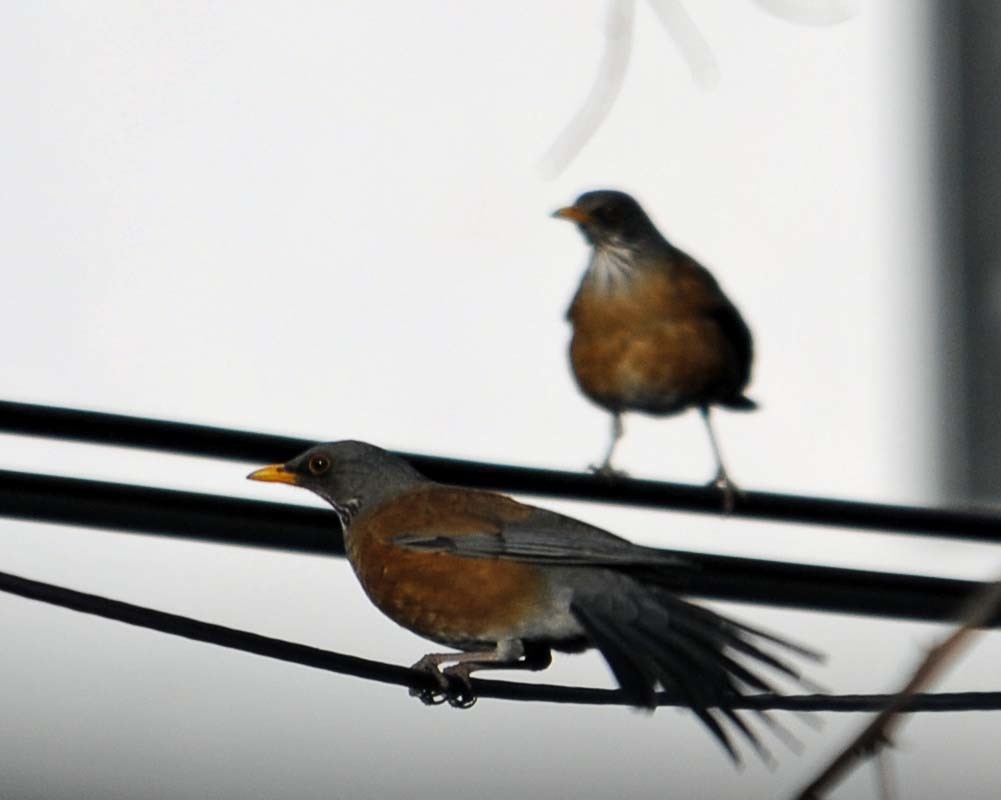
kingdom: Animalia
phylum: Chordata
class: Aves
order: Passeriformes
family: Turdidae
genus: Turdus
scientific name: Turdus rufopalliatus
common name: Rufous-backed robin
